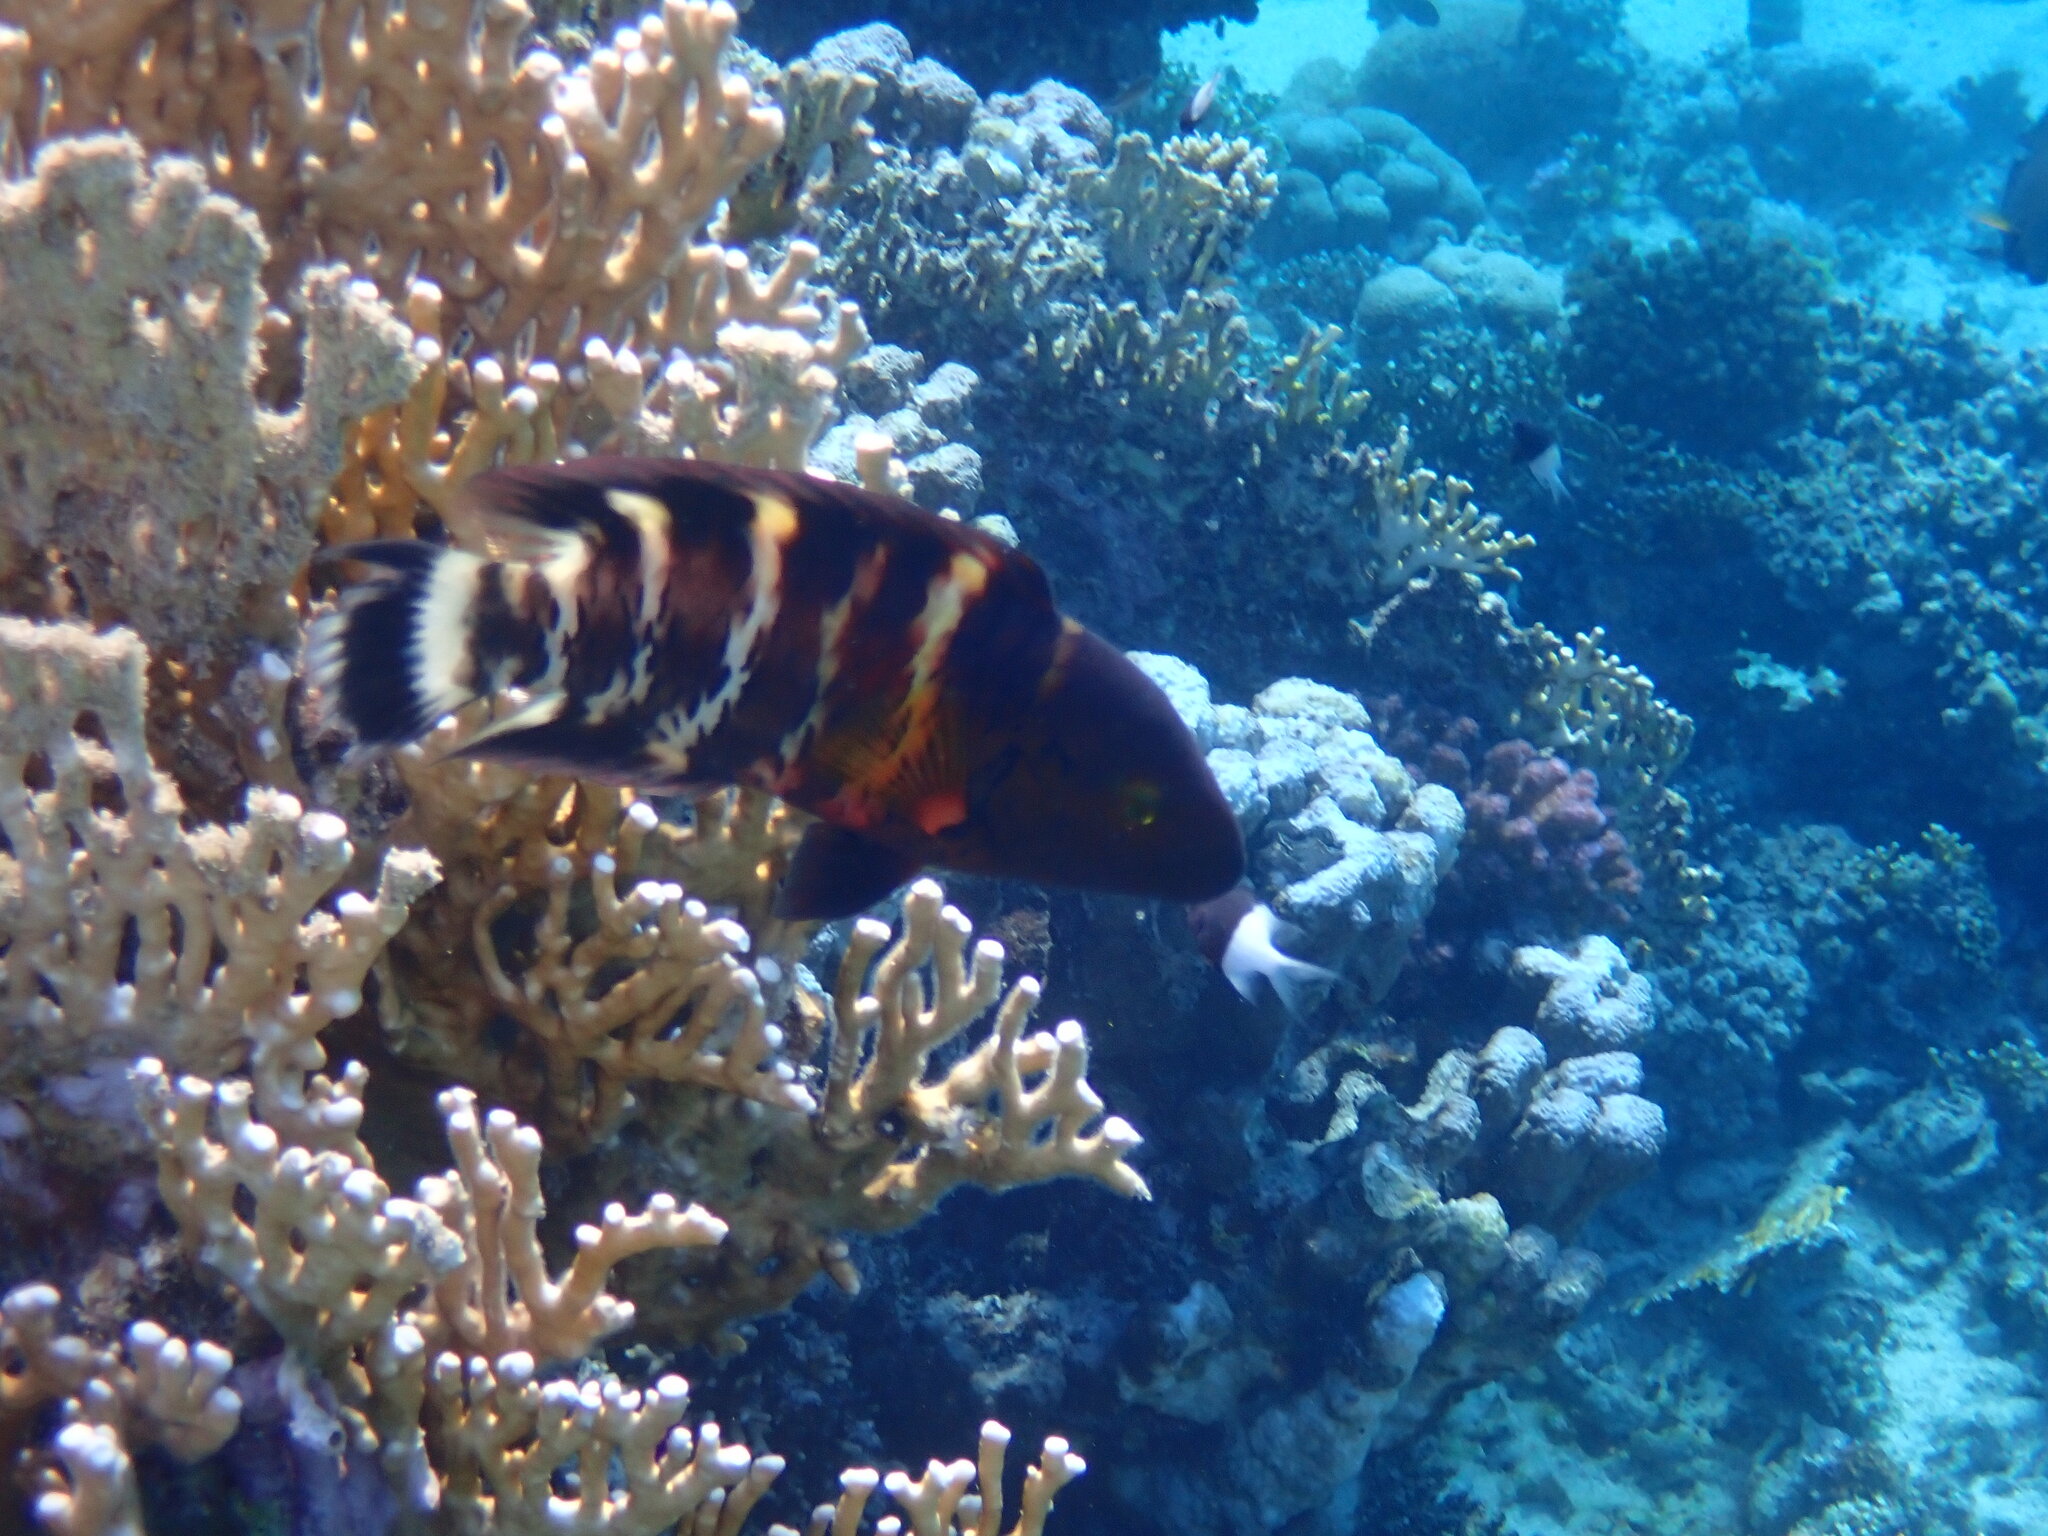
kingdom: Animalia
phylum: Chordata
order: Perciformes
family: Labridae
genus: Cheilinus
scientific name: Cheilinus fasciatus
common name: Red-breasted wrasse
